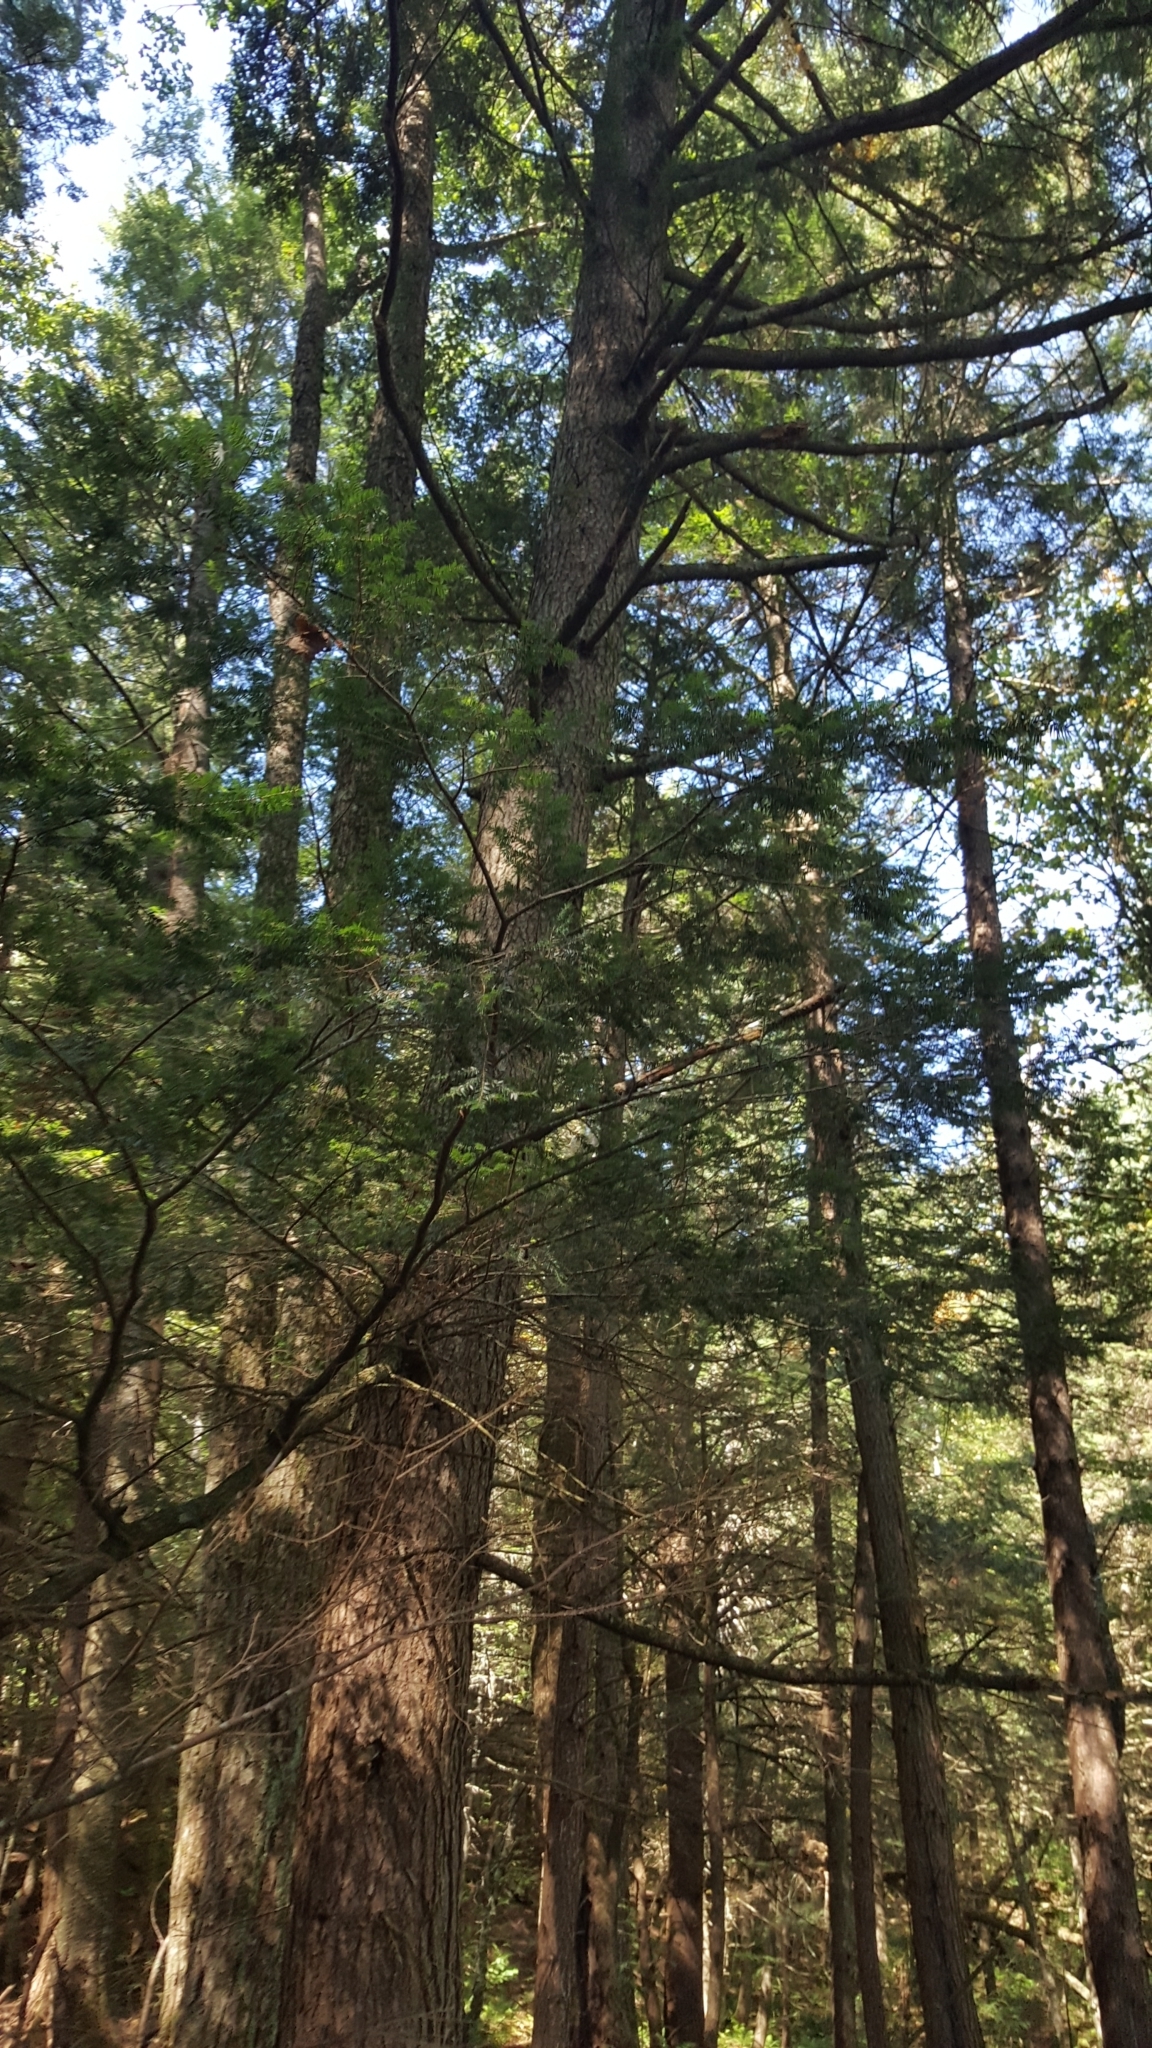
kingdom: Plantae
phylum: Tracheophyta
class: Pinopsida
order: Pinales
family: Pinaceae
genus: Tsuga
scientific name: Tsuga canadensis
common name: Eastern hemlock
